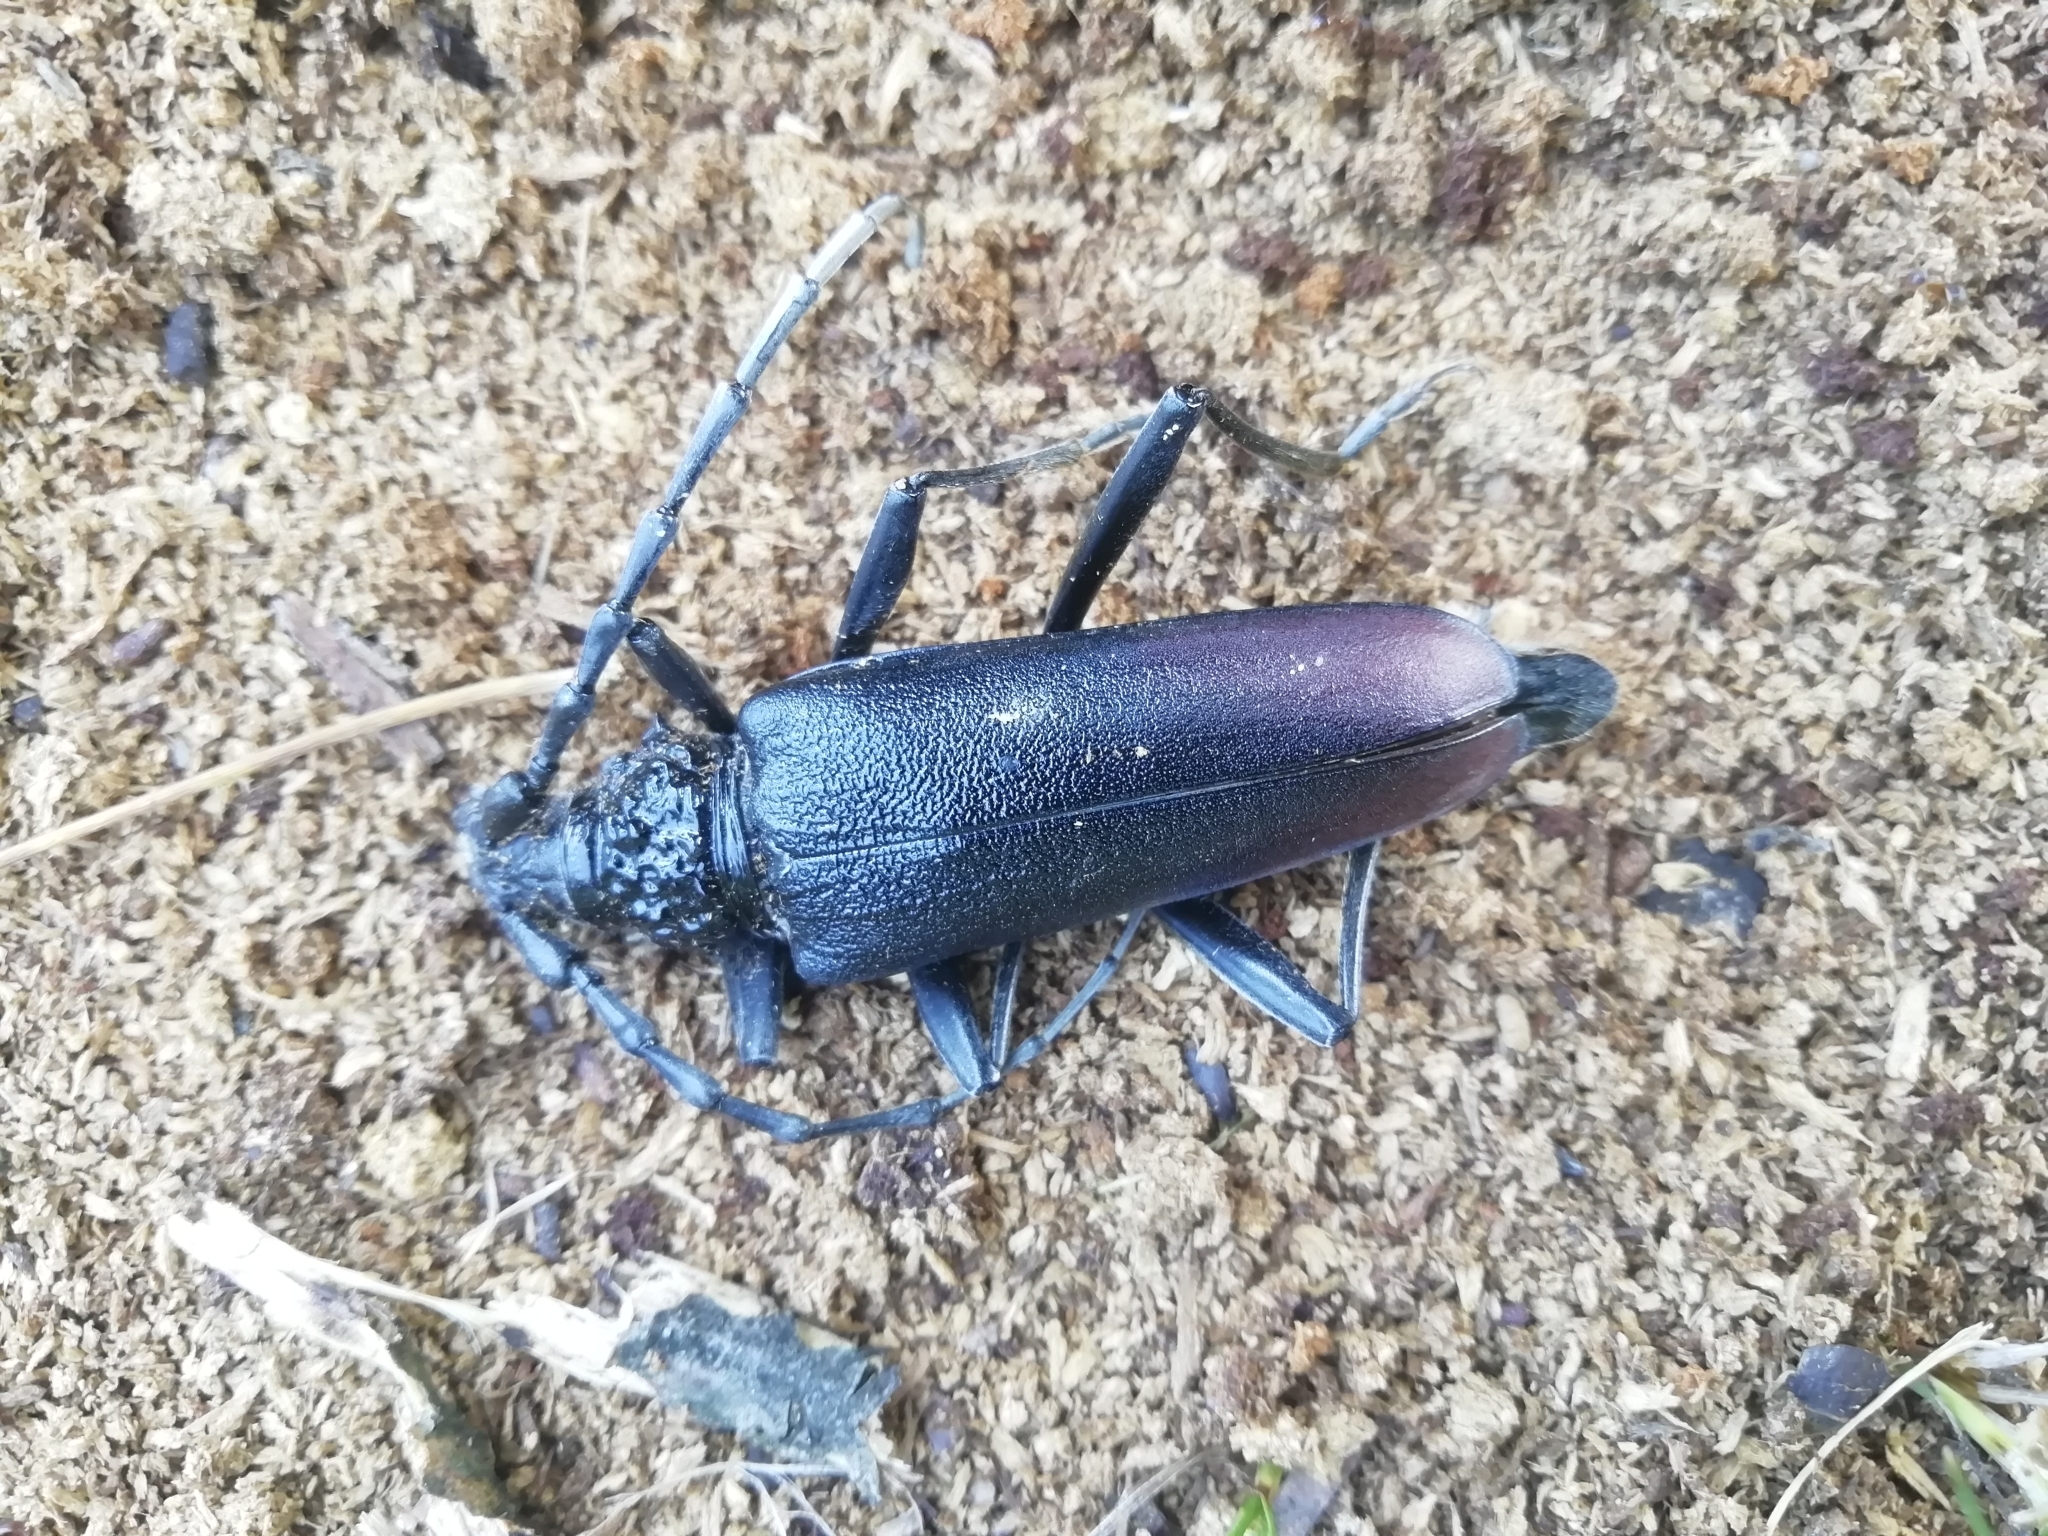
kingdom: Animalia
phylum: Arthropoda
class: Insecta
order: Coleoptera
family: Cerambycidae
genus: Cerambyx
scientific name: Cerambyx cerdo
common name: Cerambyx longicorn
